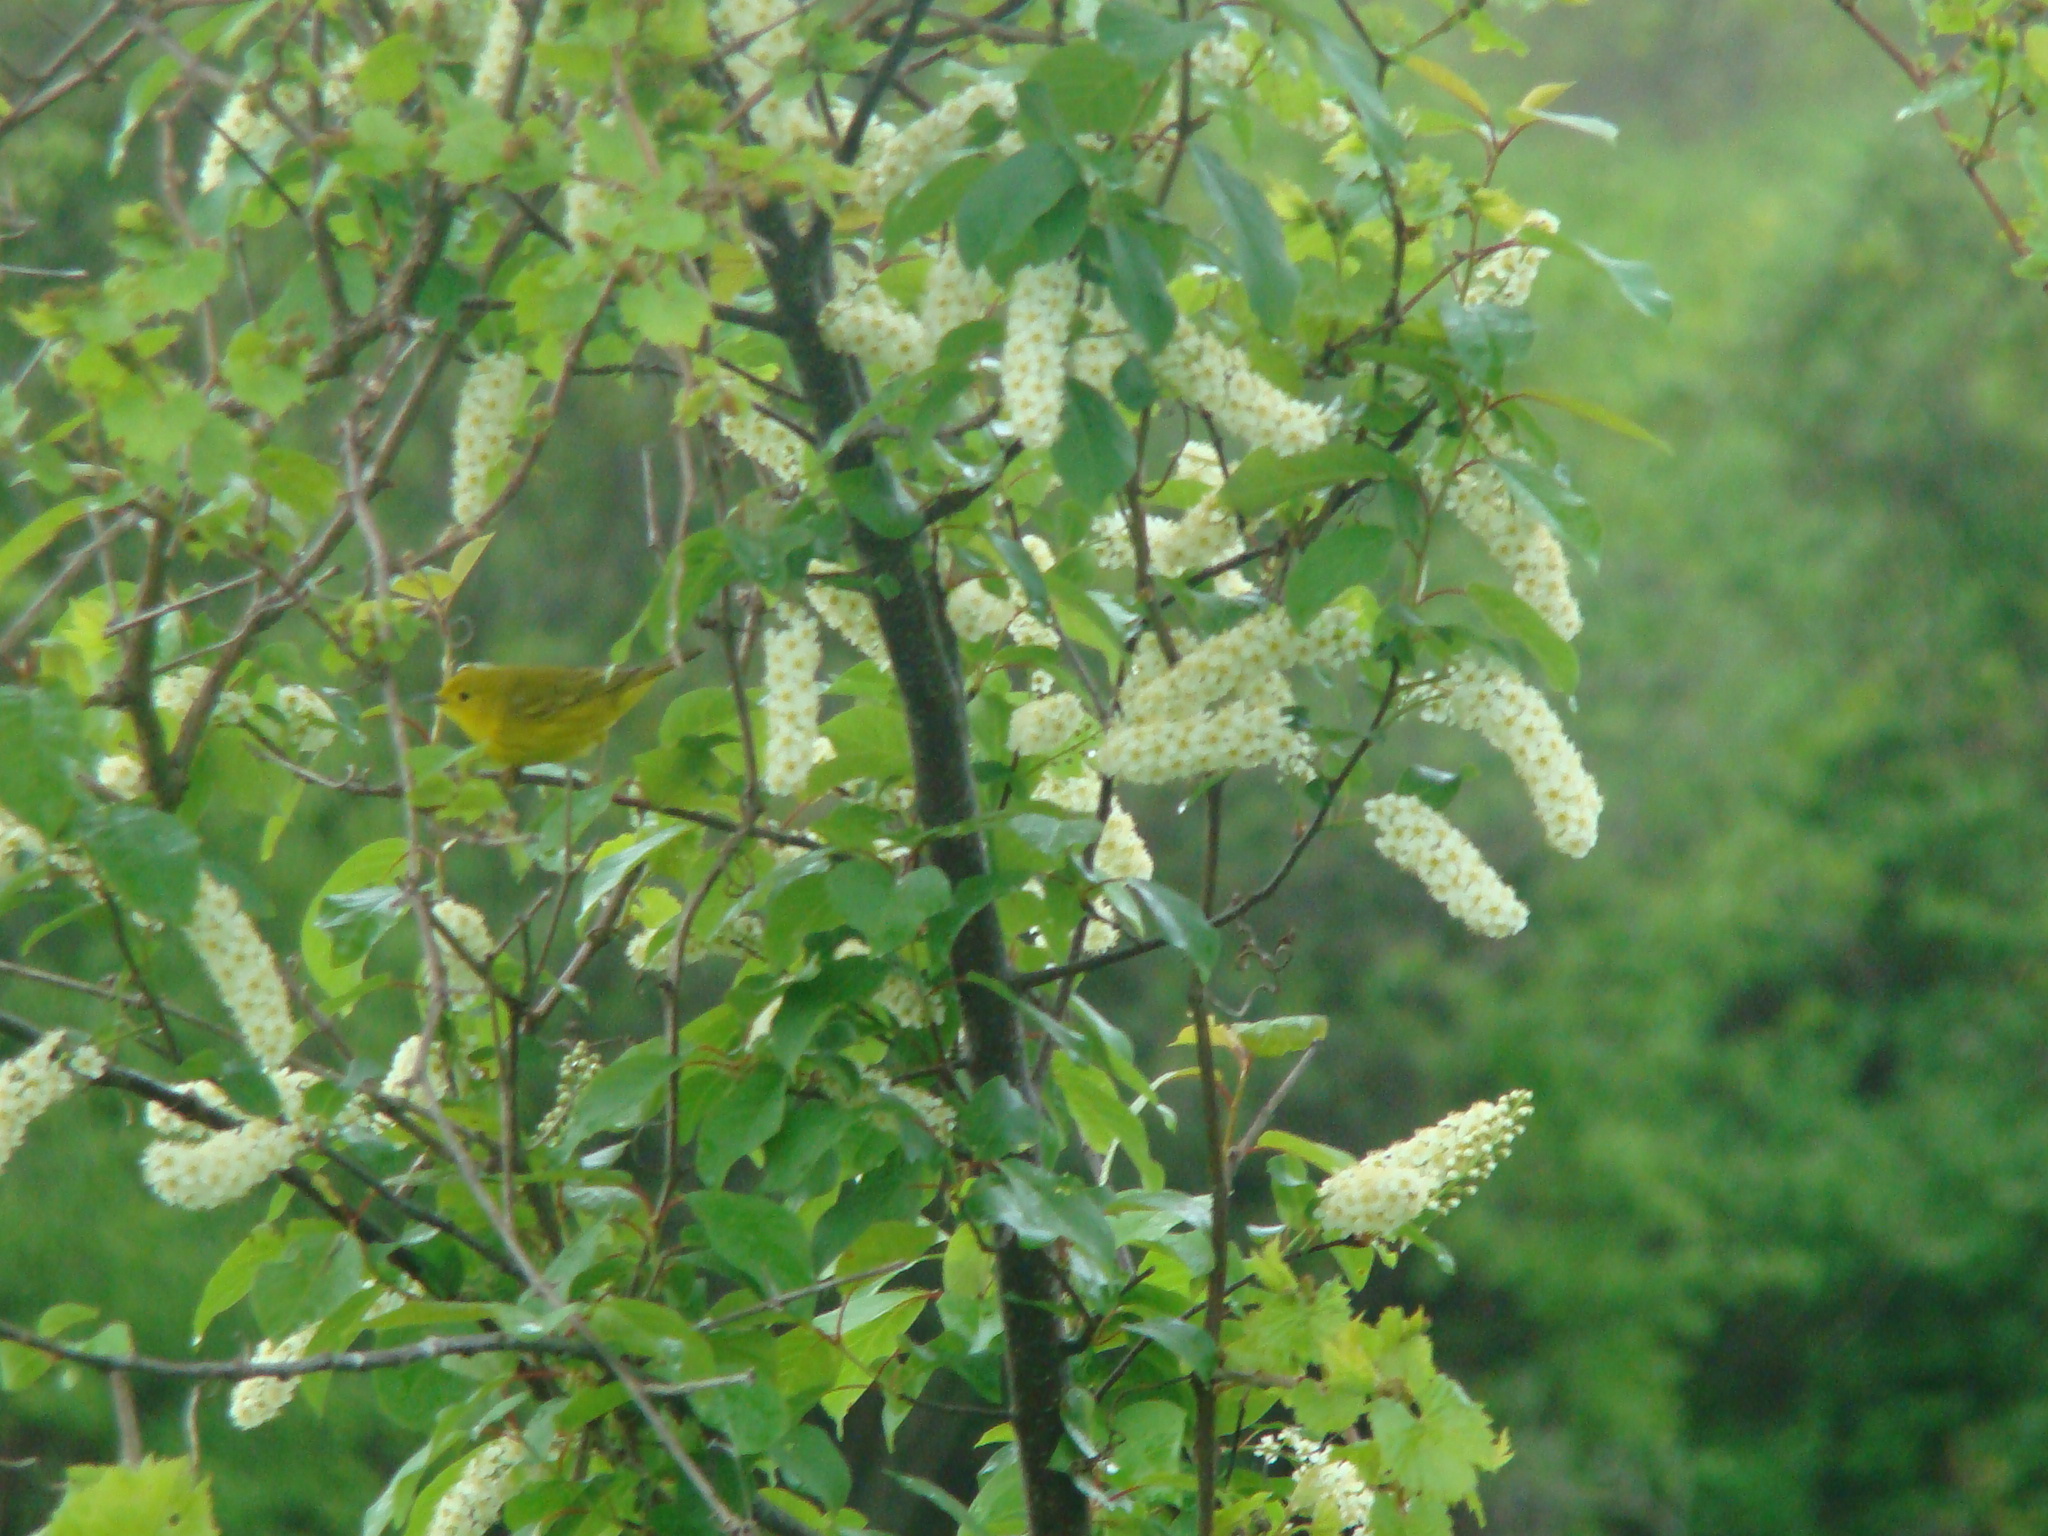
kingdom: Animalia
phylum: Chordata
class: Aves
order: Passeriformes
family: Parulidae
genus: Setophaga
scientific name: Setophaga petechia
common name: Yellow warbler
